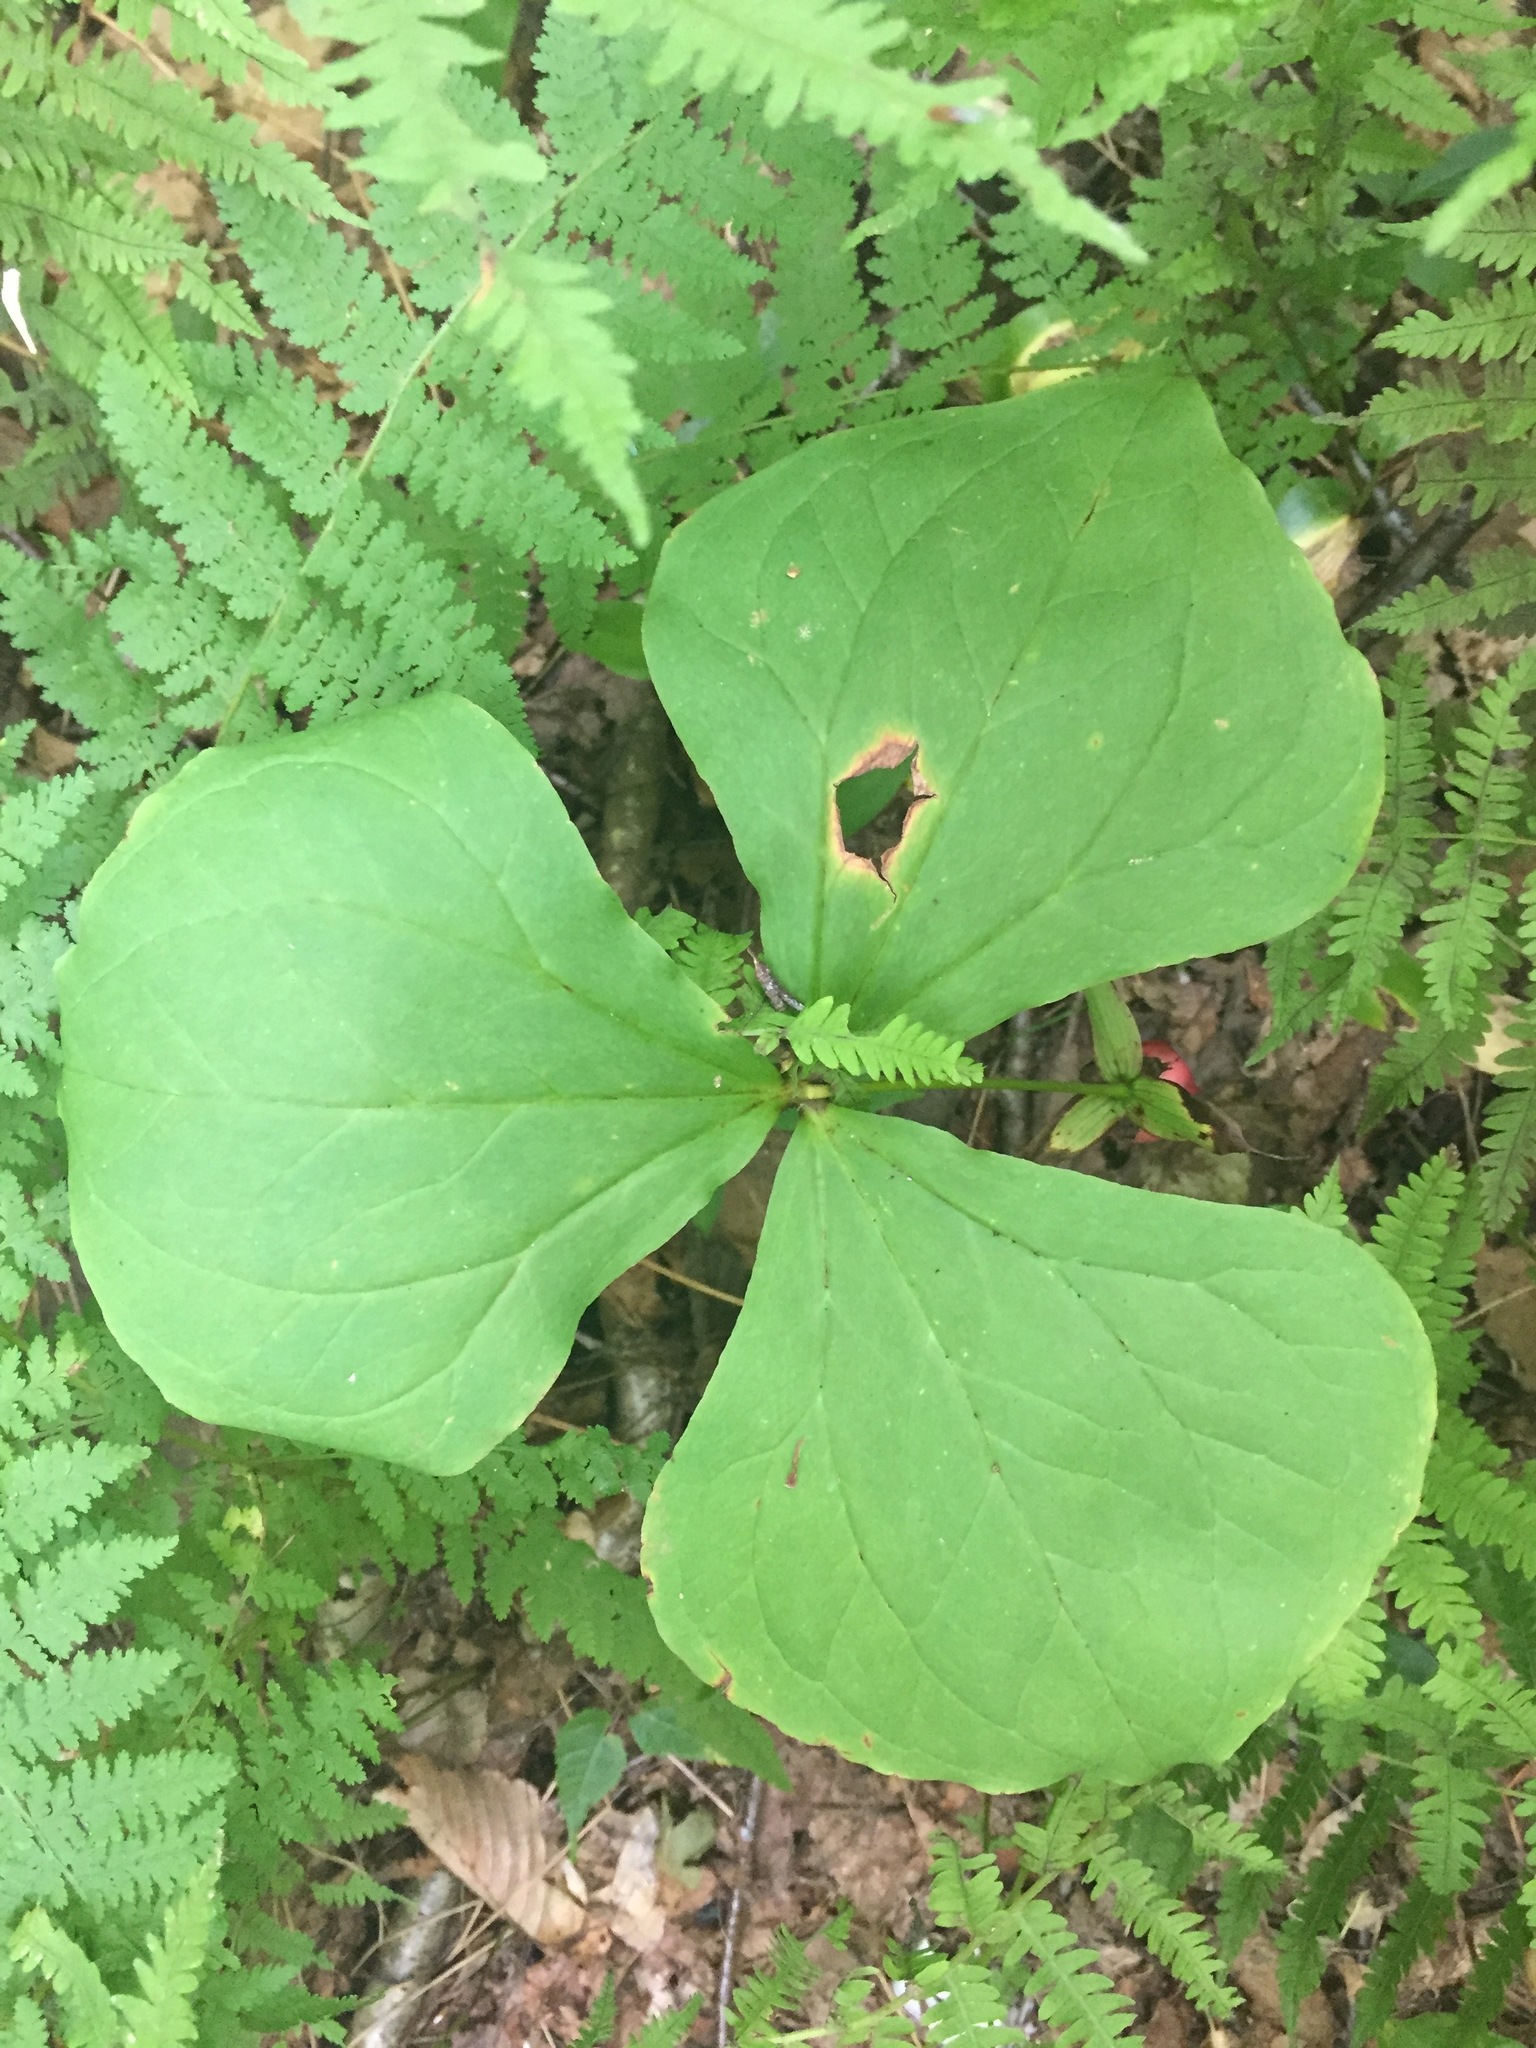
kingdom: Plantae
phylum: Tracheophyta
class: Liliopsida
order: Liliales
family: Melanthiaceae
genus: Trillium
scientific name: Trillium erectum
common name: Purple trillium
